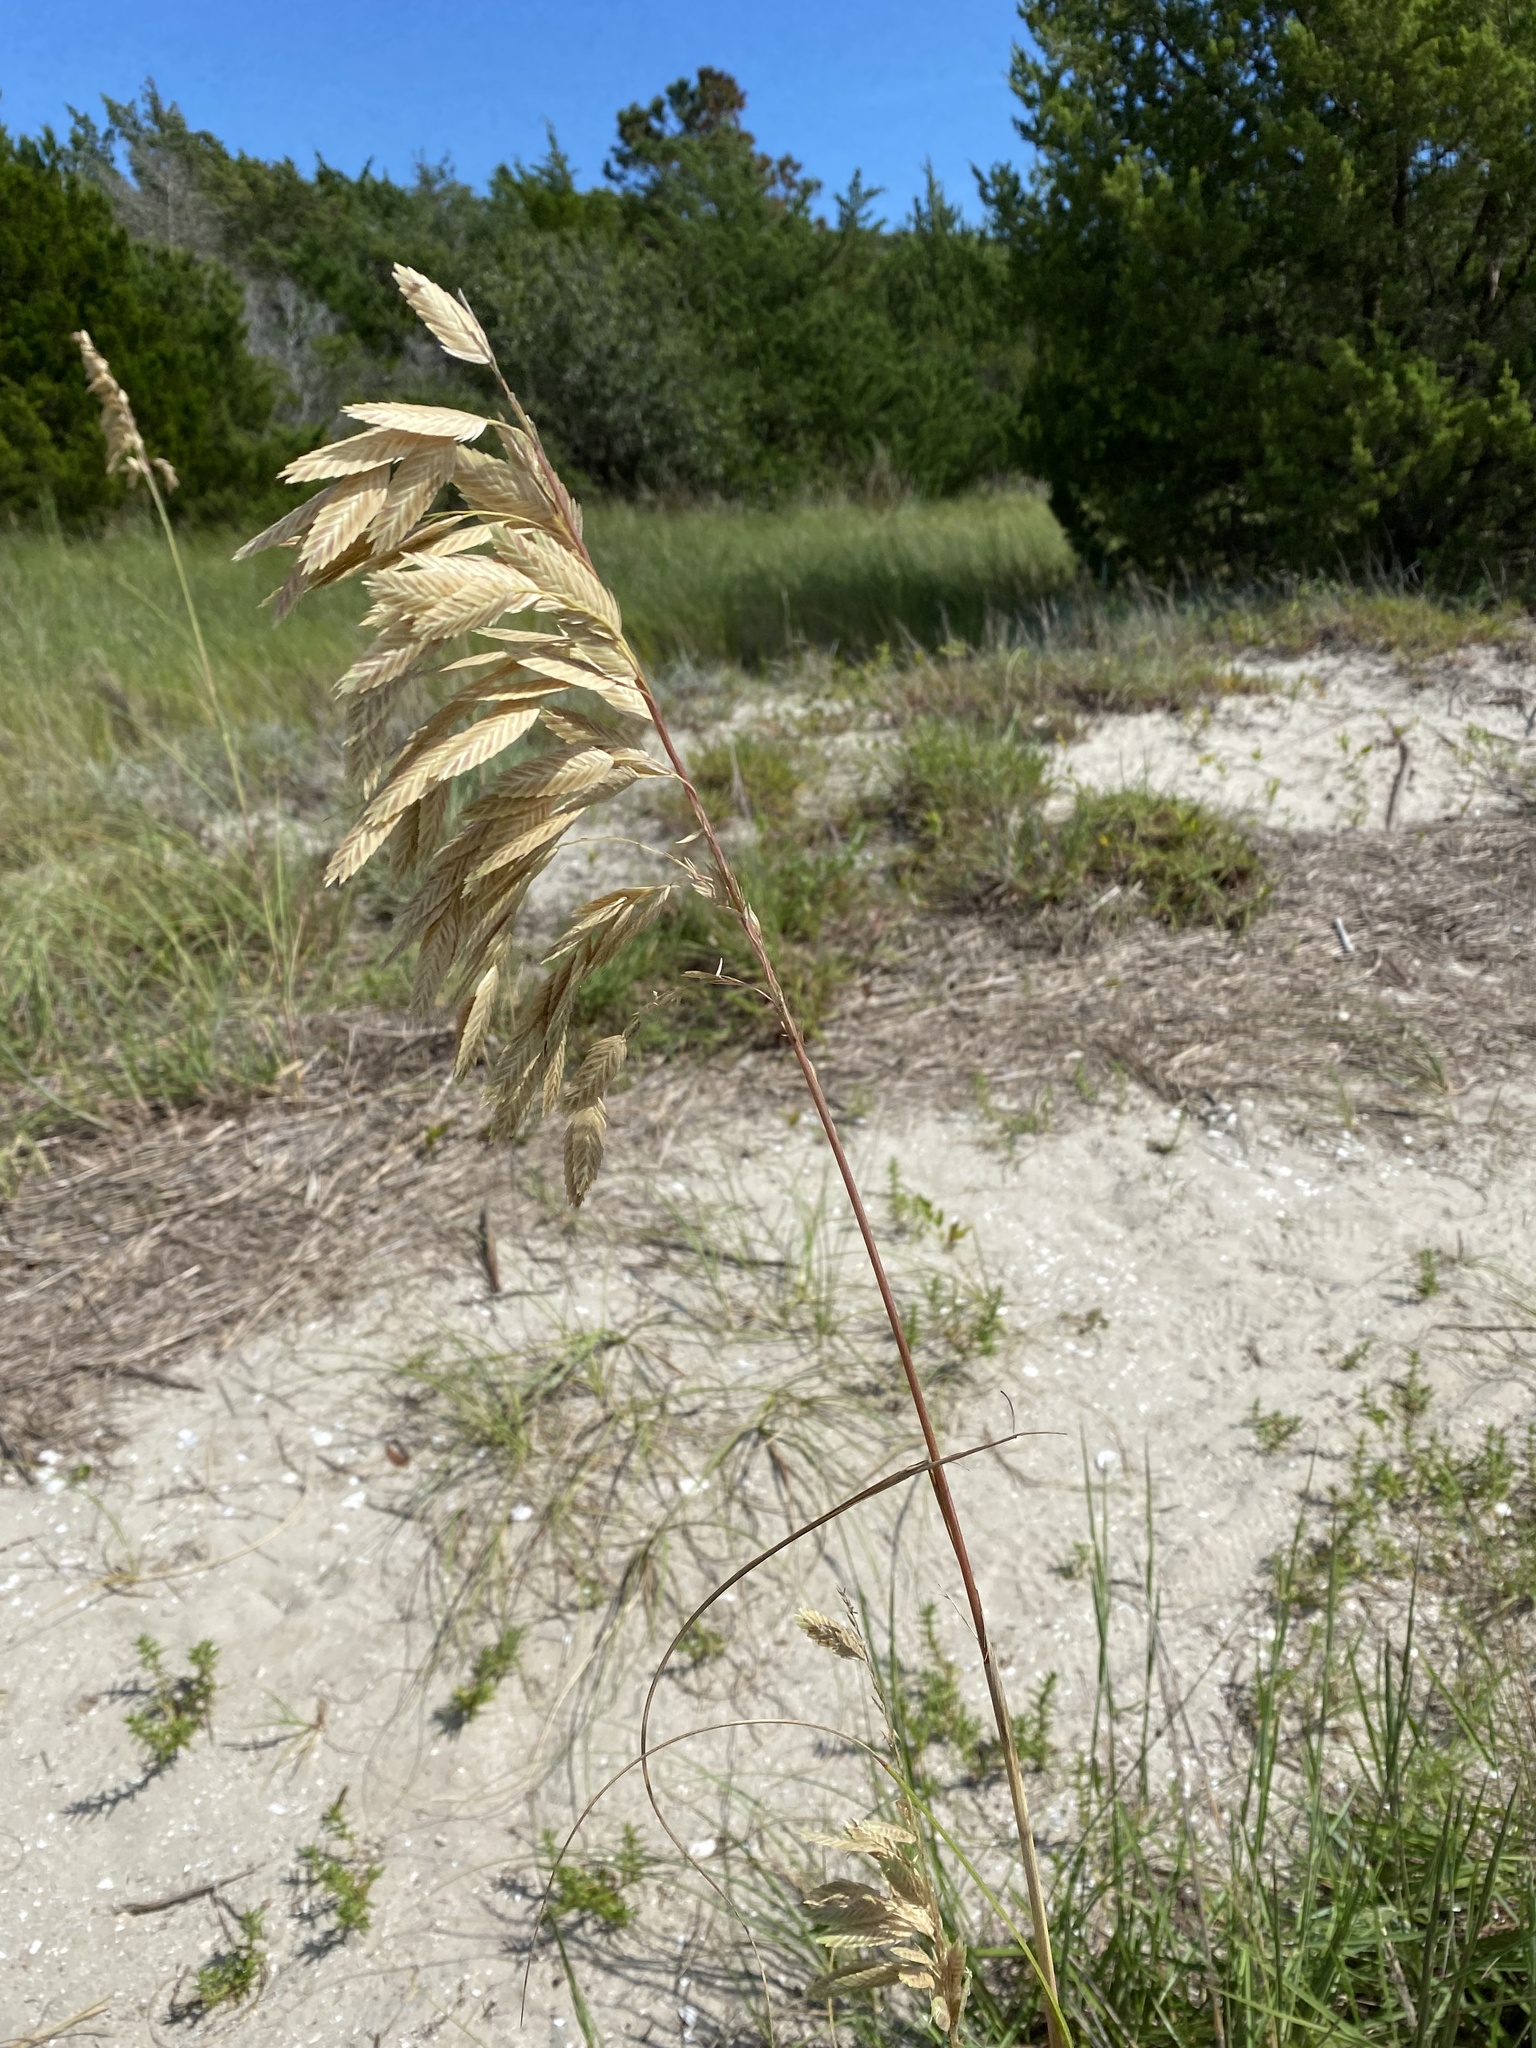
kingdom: Plantae
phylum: Tracheophyta
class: Liliopsida
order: Poales
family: Poaceae
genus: Uniola
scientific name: Uniola paniculata
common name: Seaside-oats
